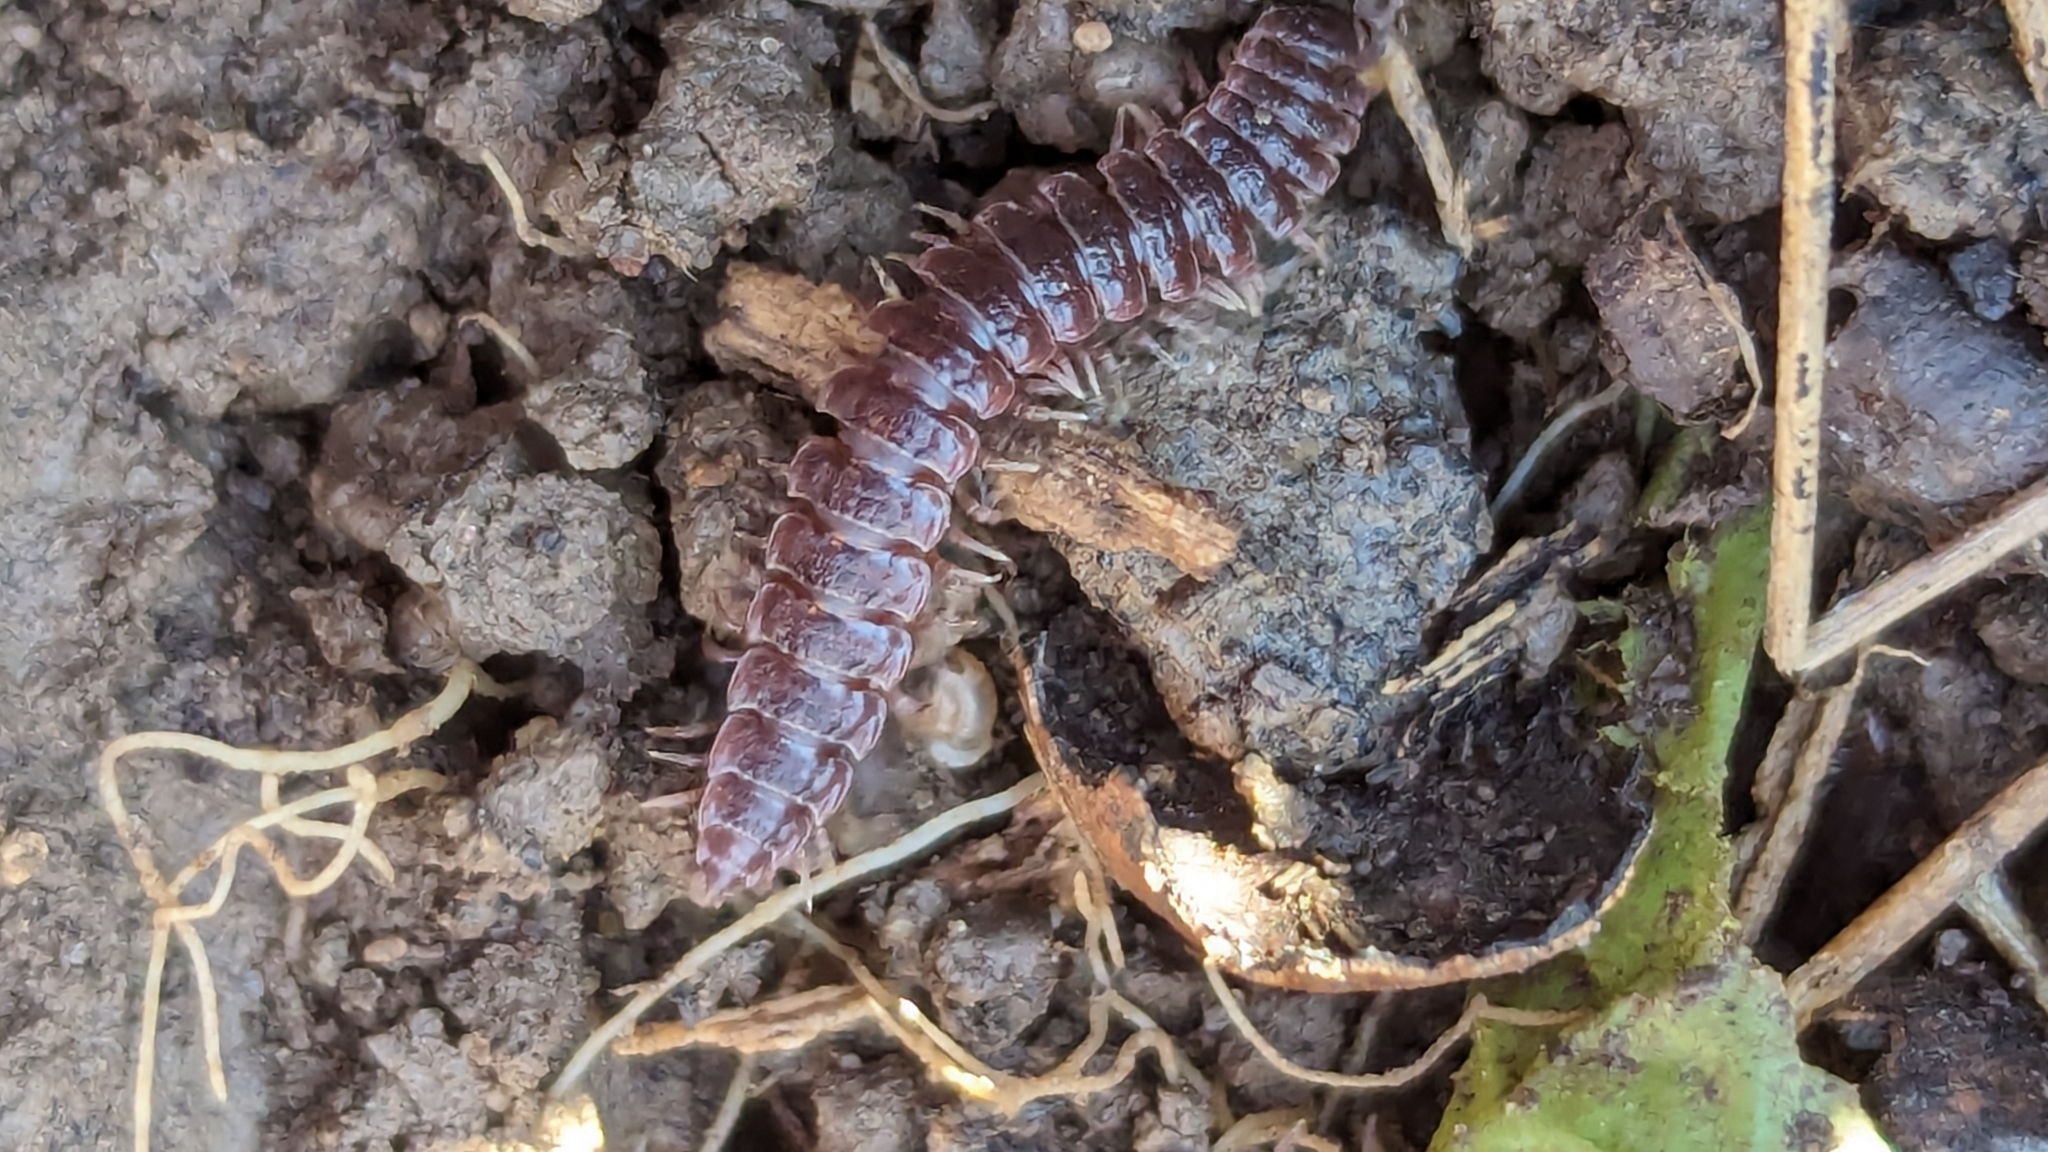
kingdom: Animalia
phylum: Arthropoda
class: Diplopoda
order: Polydesmida
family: Polydesmidae
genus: Pseudopolydesmus
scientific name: Pseudopolydesmus serratus
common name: Common pink flat-back millipede
